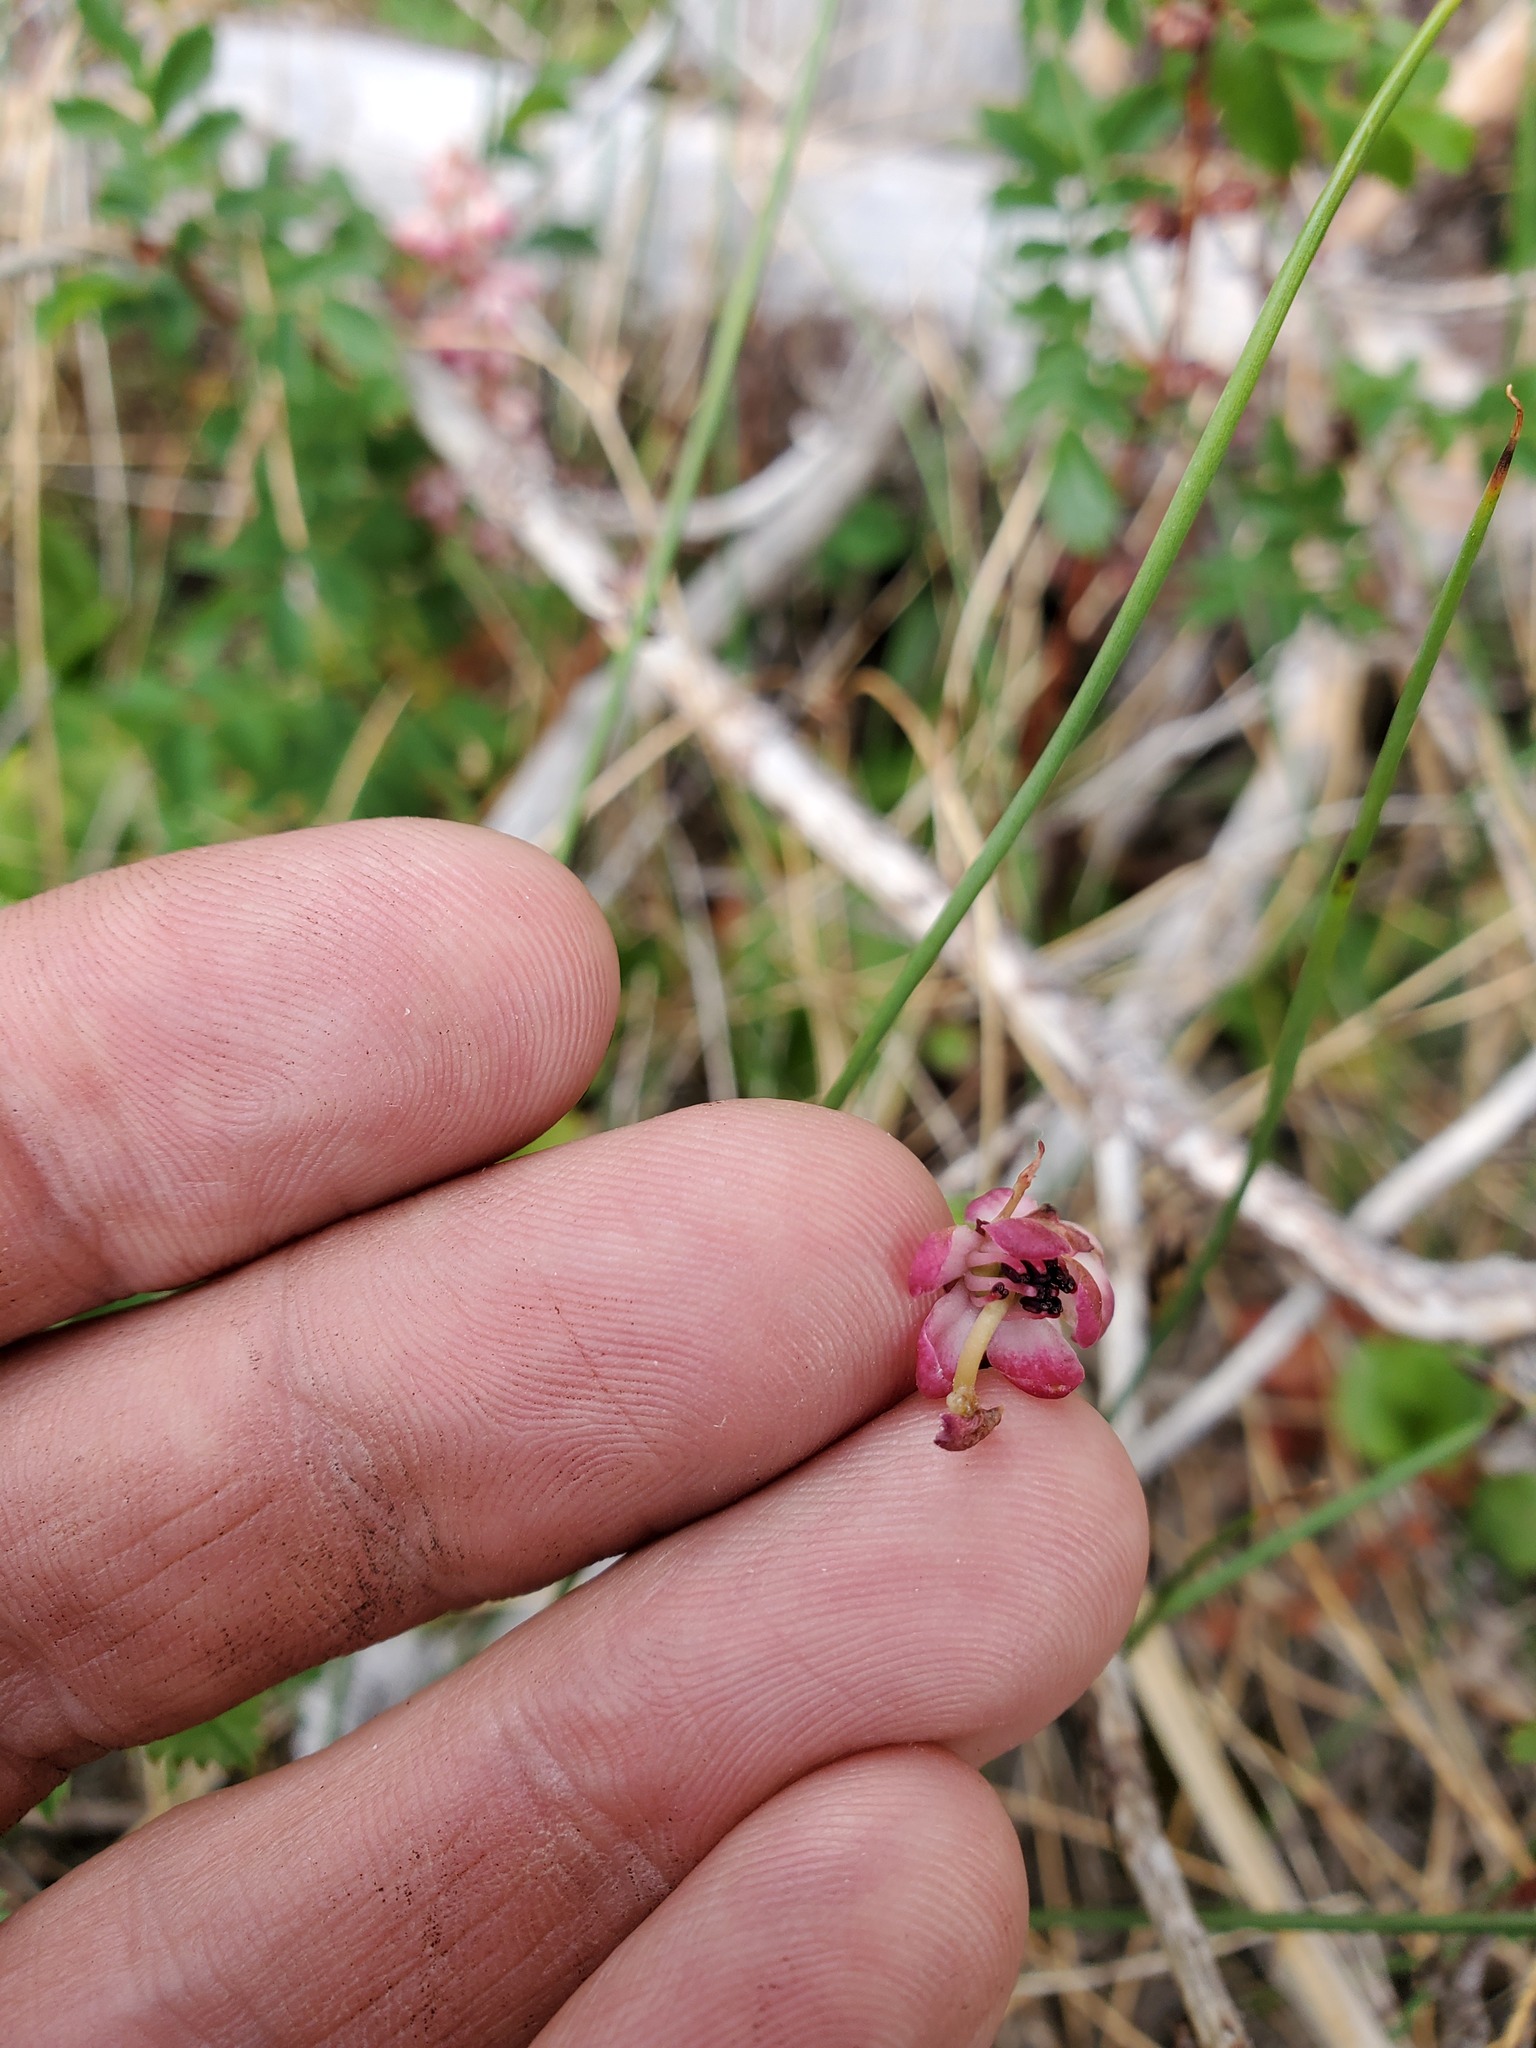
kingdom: Plantae
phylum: Tracheophyta
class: Magnoliopsida
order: Ericales
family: Ericaceae
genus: Pyrola
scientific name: Pyrola asarifolia
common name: Bog wintergreen
